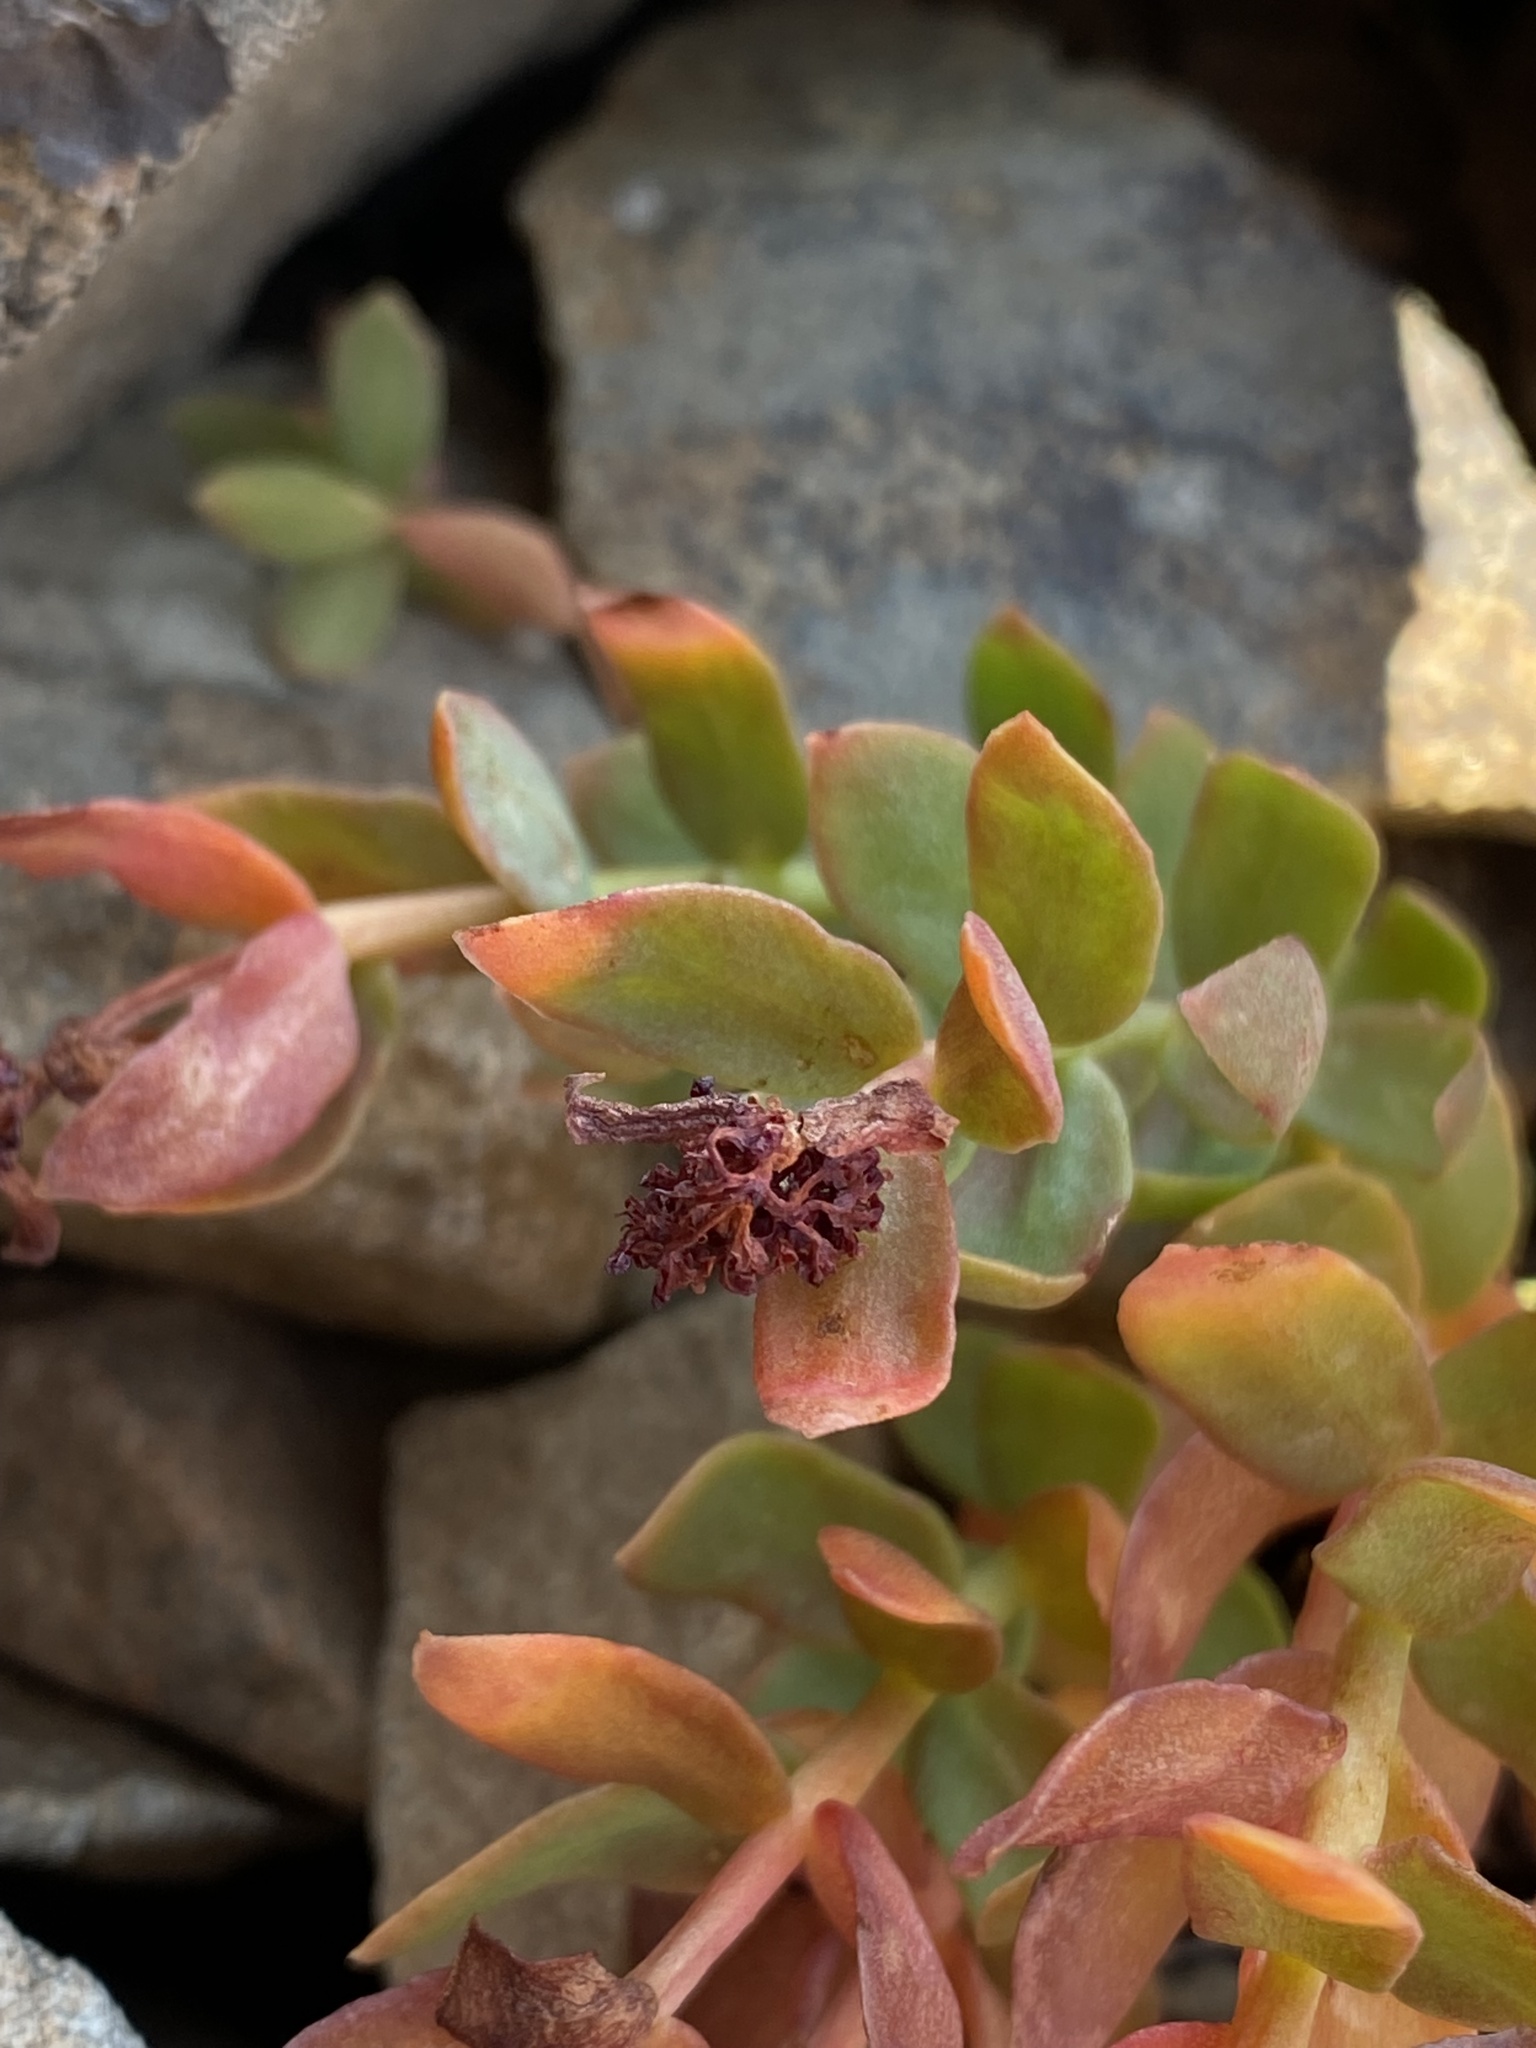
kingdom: Plantae
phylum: Tracheophyta
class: Magnoliopsida
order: Saxifragales
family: Crassulaceae
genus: Rhodiola
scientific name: Rhodiola integrifolia
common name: Western roseroot
